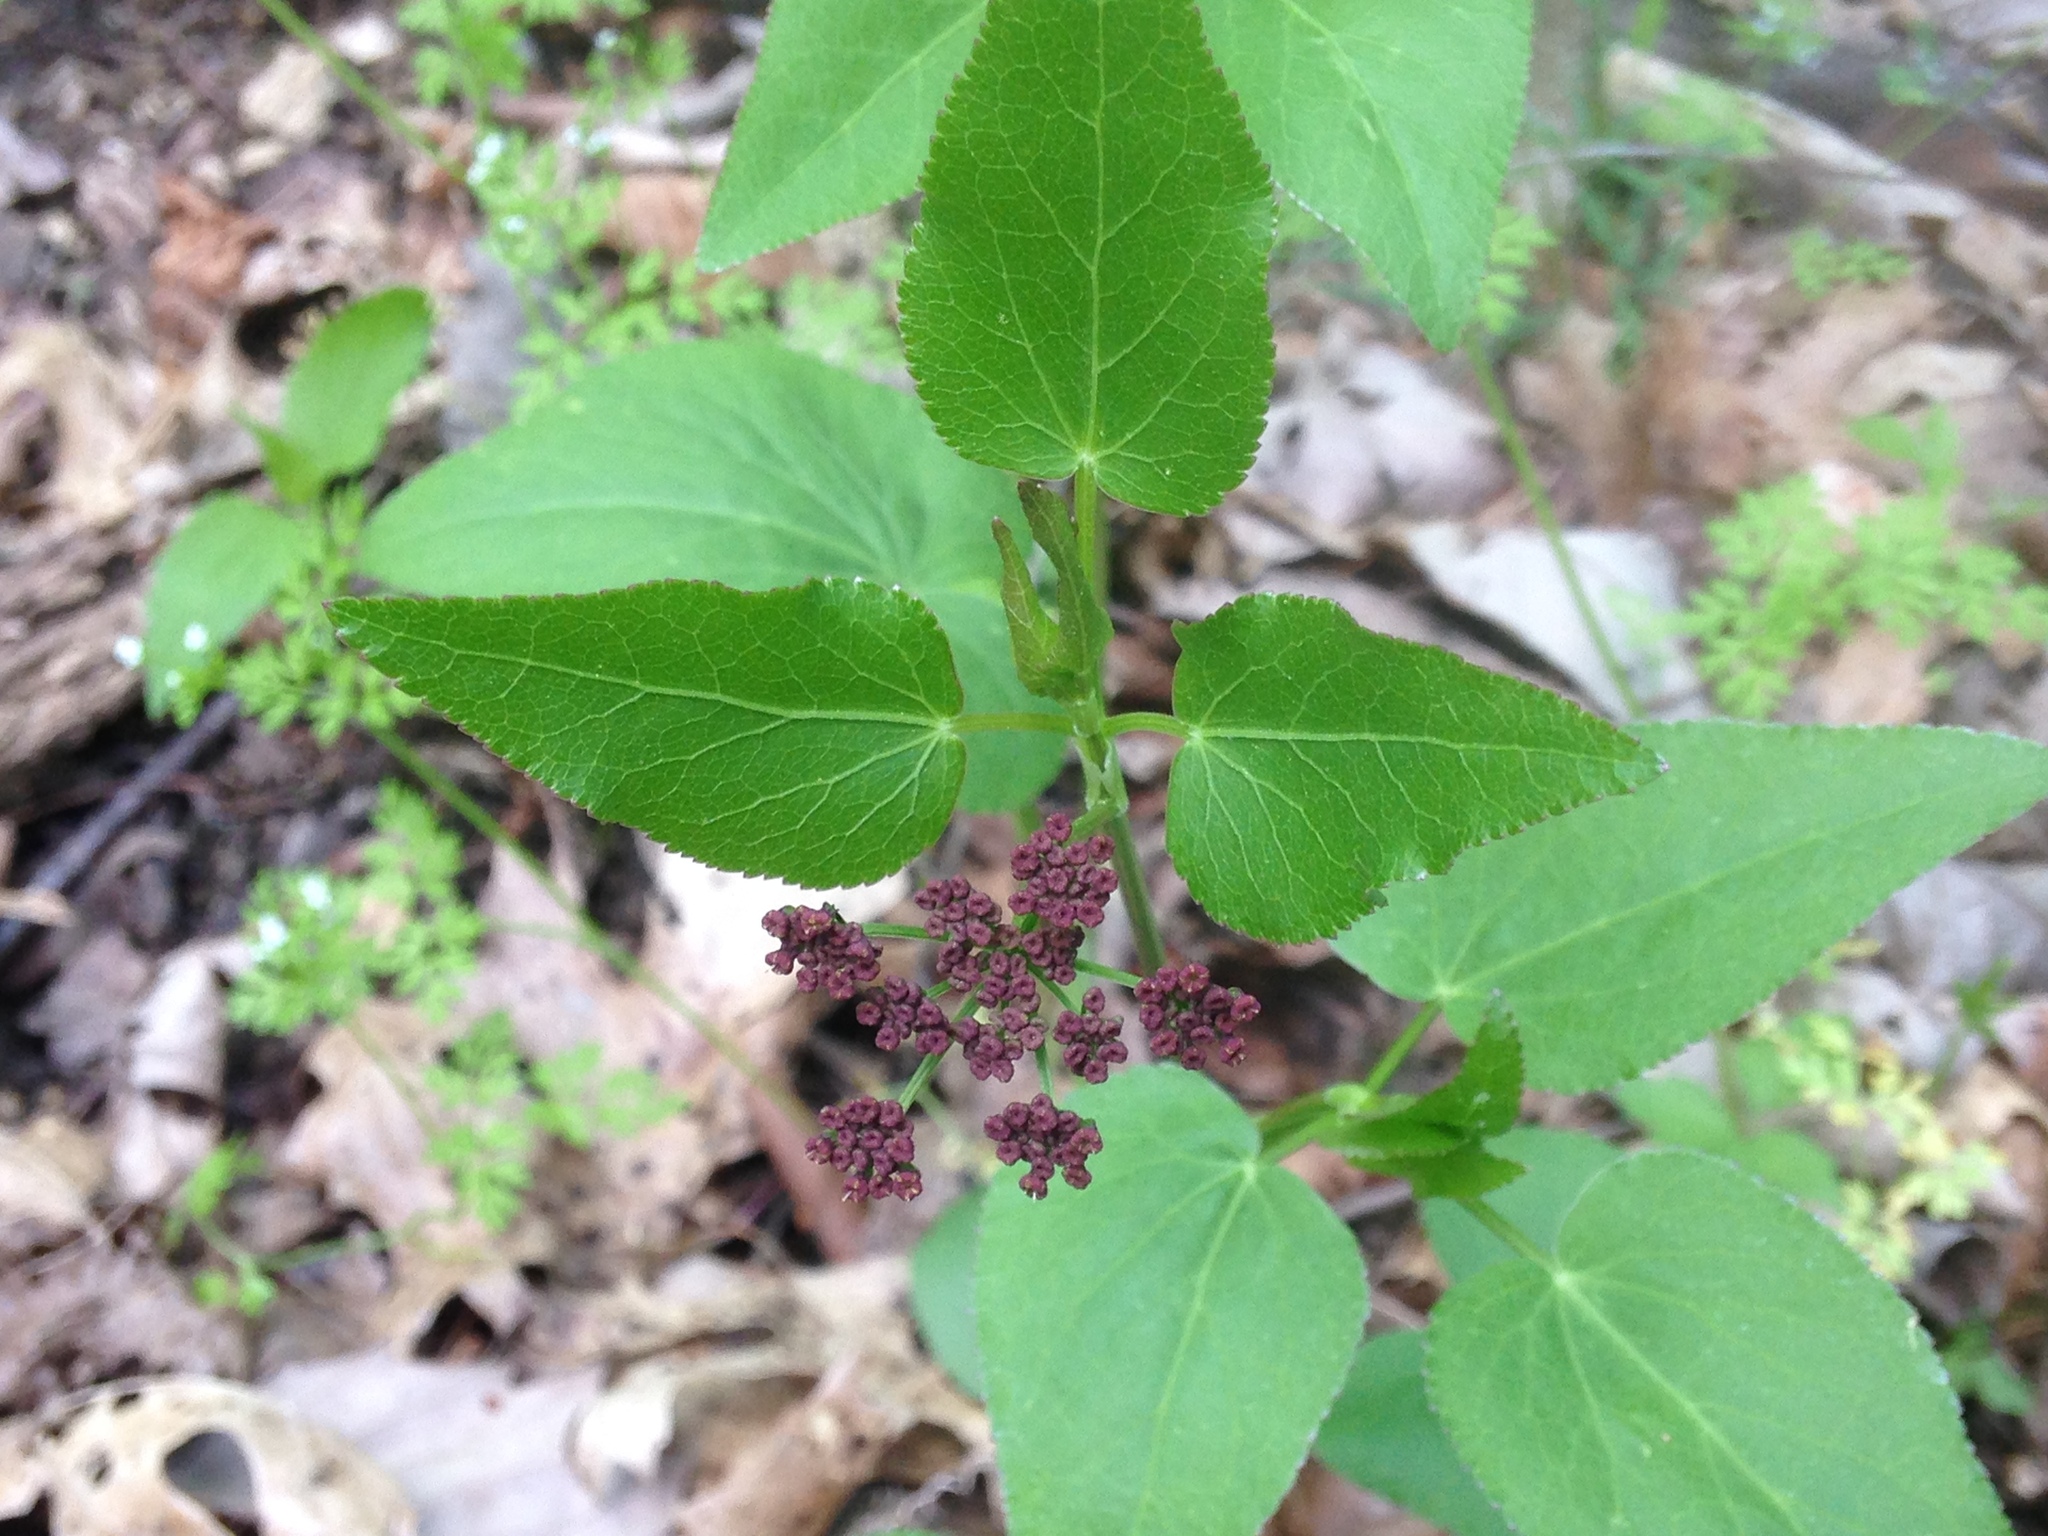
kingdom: Plantae
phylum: Tracheophyta
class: Magnoliopsida
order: Apiales
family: Apiaceae
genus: Thaspium
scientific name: Thaspium trifoliatum
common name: Purple meadow-parsnip
